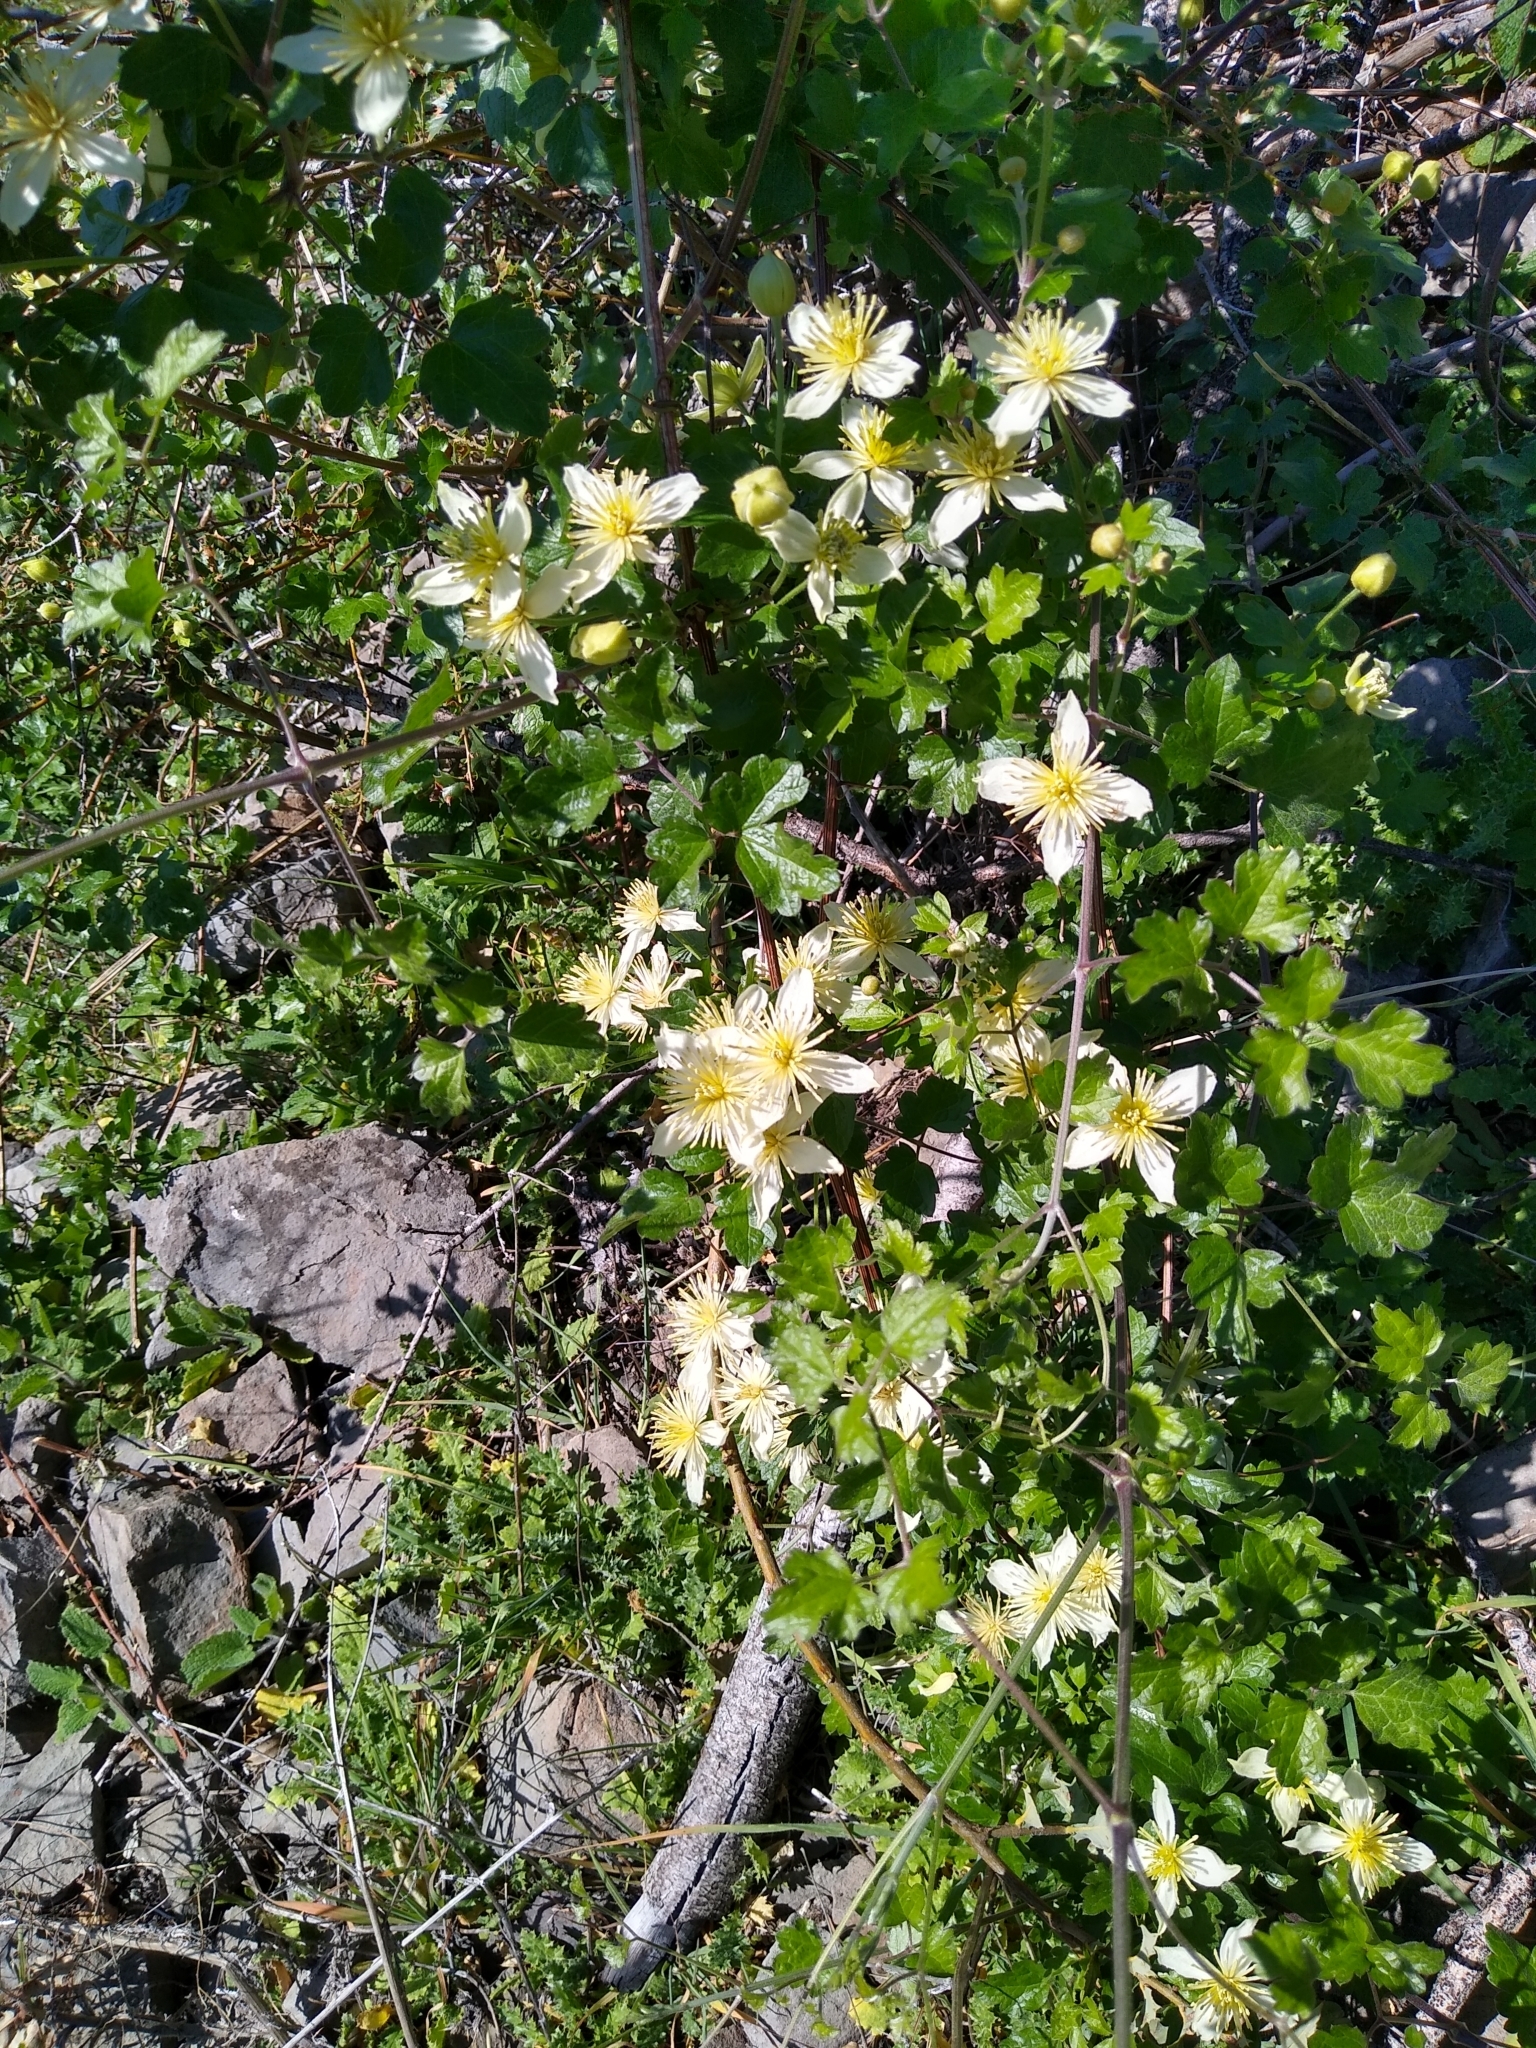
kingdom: Plantae
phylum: Tracheophyta
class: Magnoliopsida
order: Ranunculales
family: Ranunculaceae
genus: Clematis
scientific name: Clematis lasiantha
